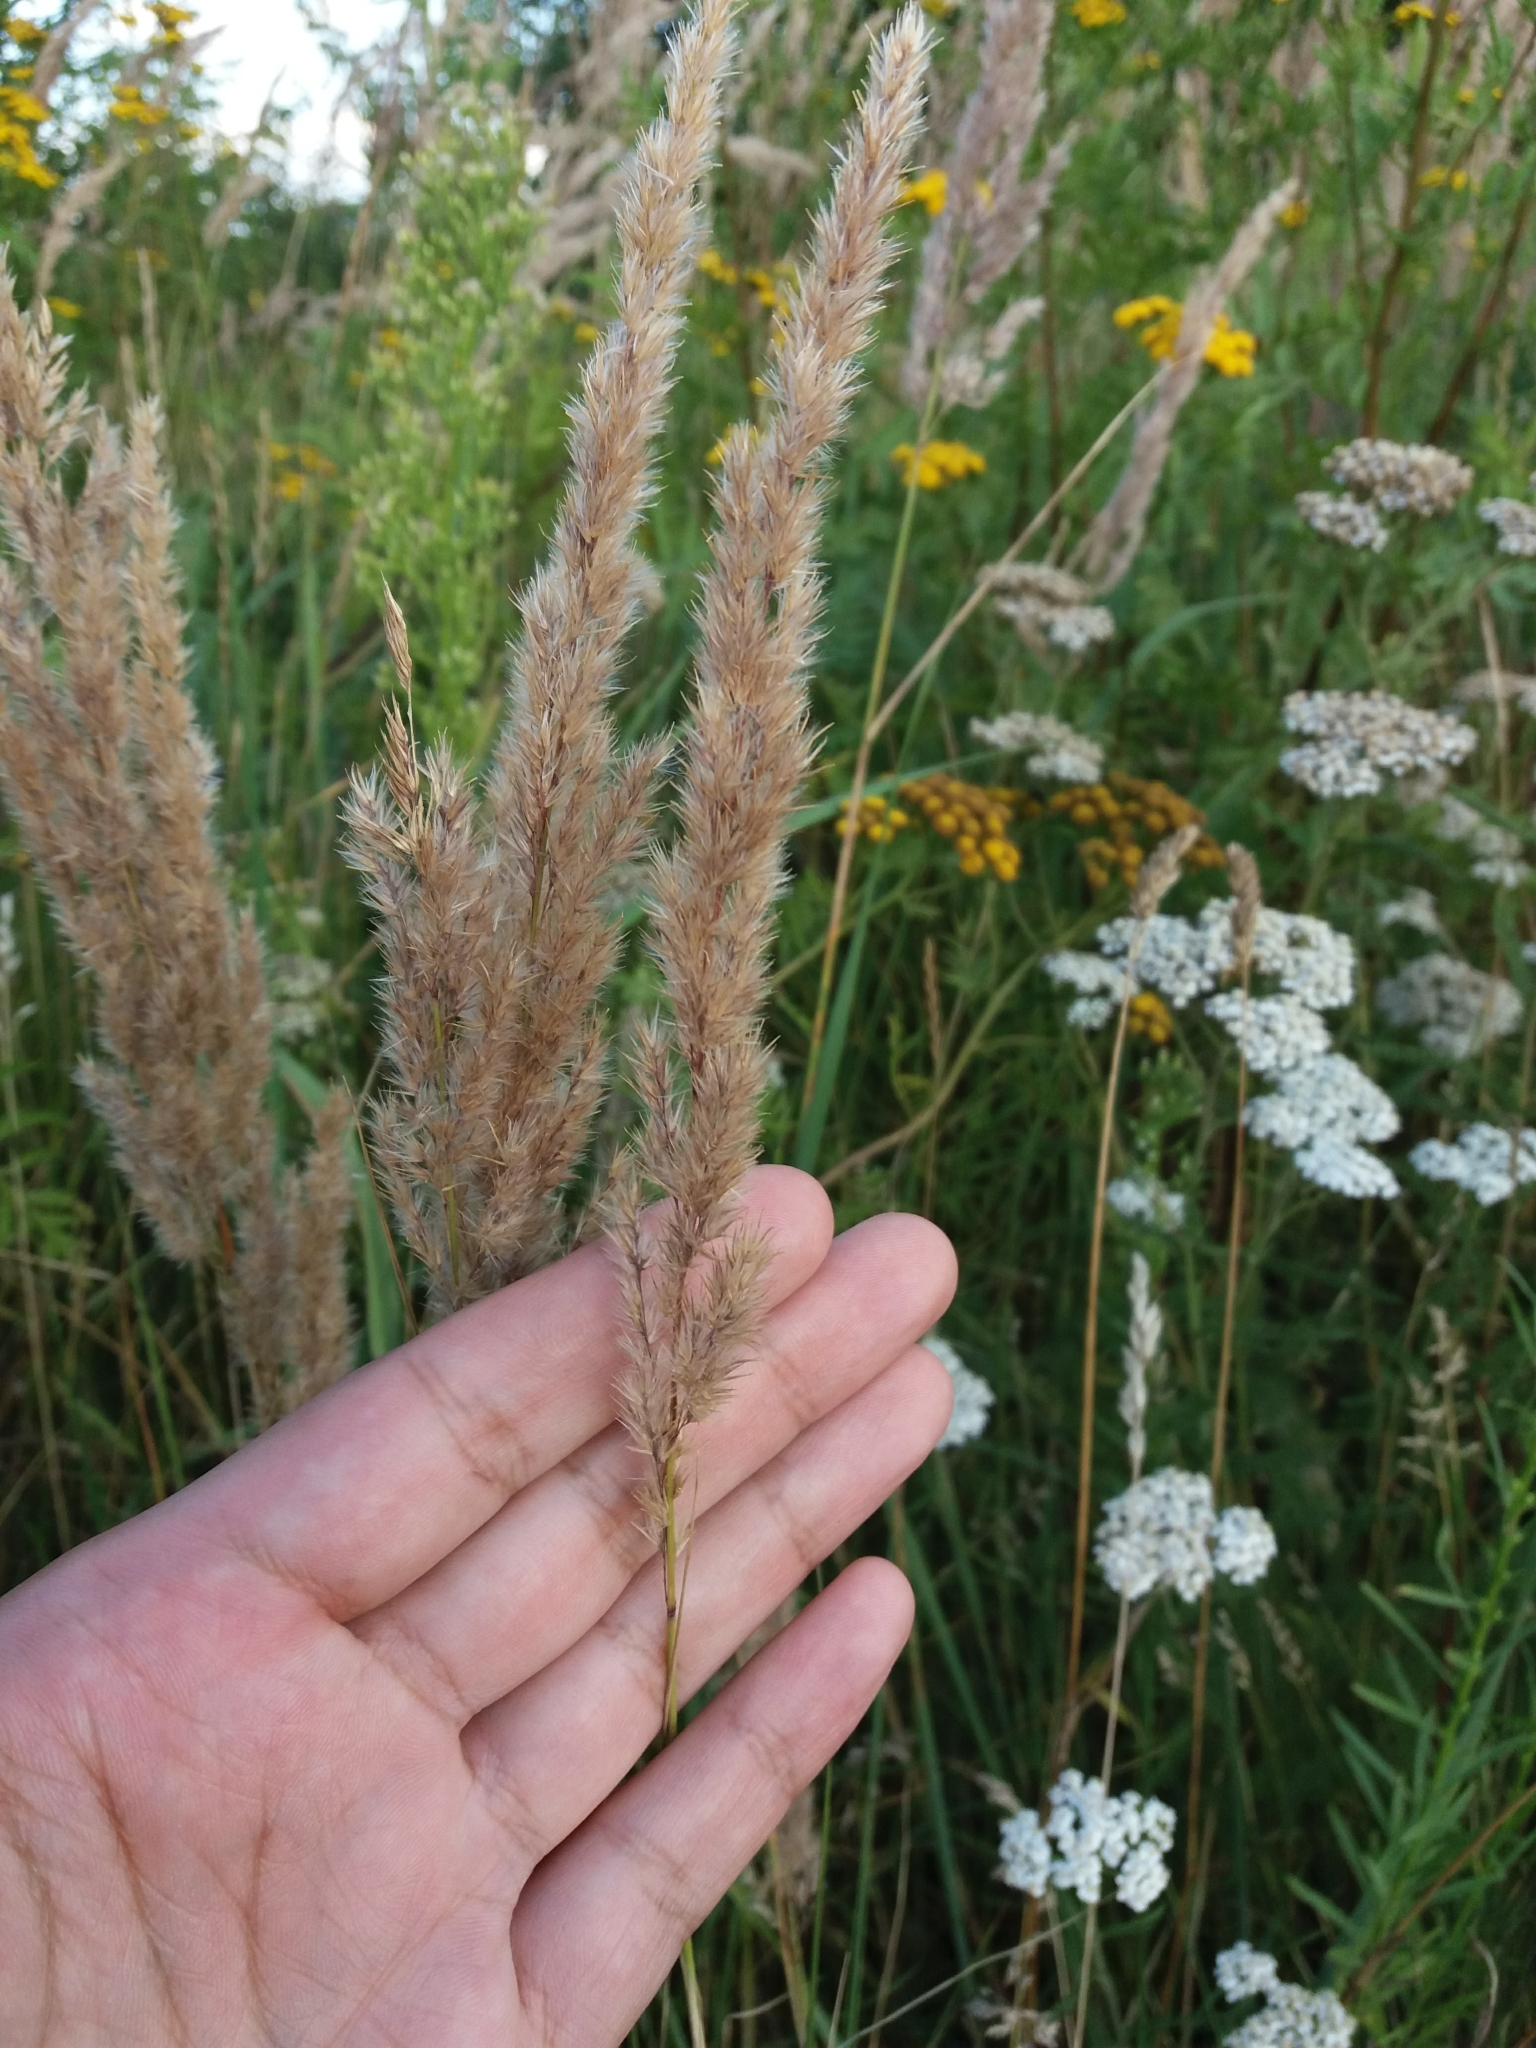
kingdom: Plantae
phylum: Tracheophyta
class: Liliopsida
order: Poales
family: Poaceae
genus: Calamagrostis
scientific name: Calamagrostis epigejos
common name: Wood small-reed
